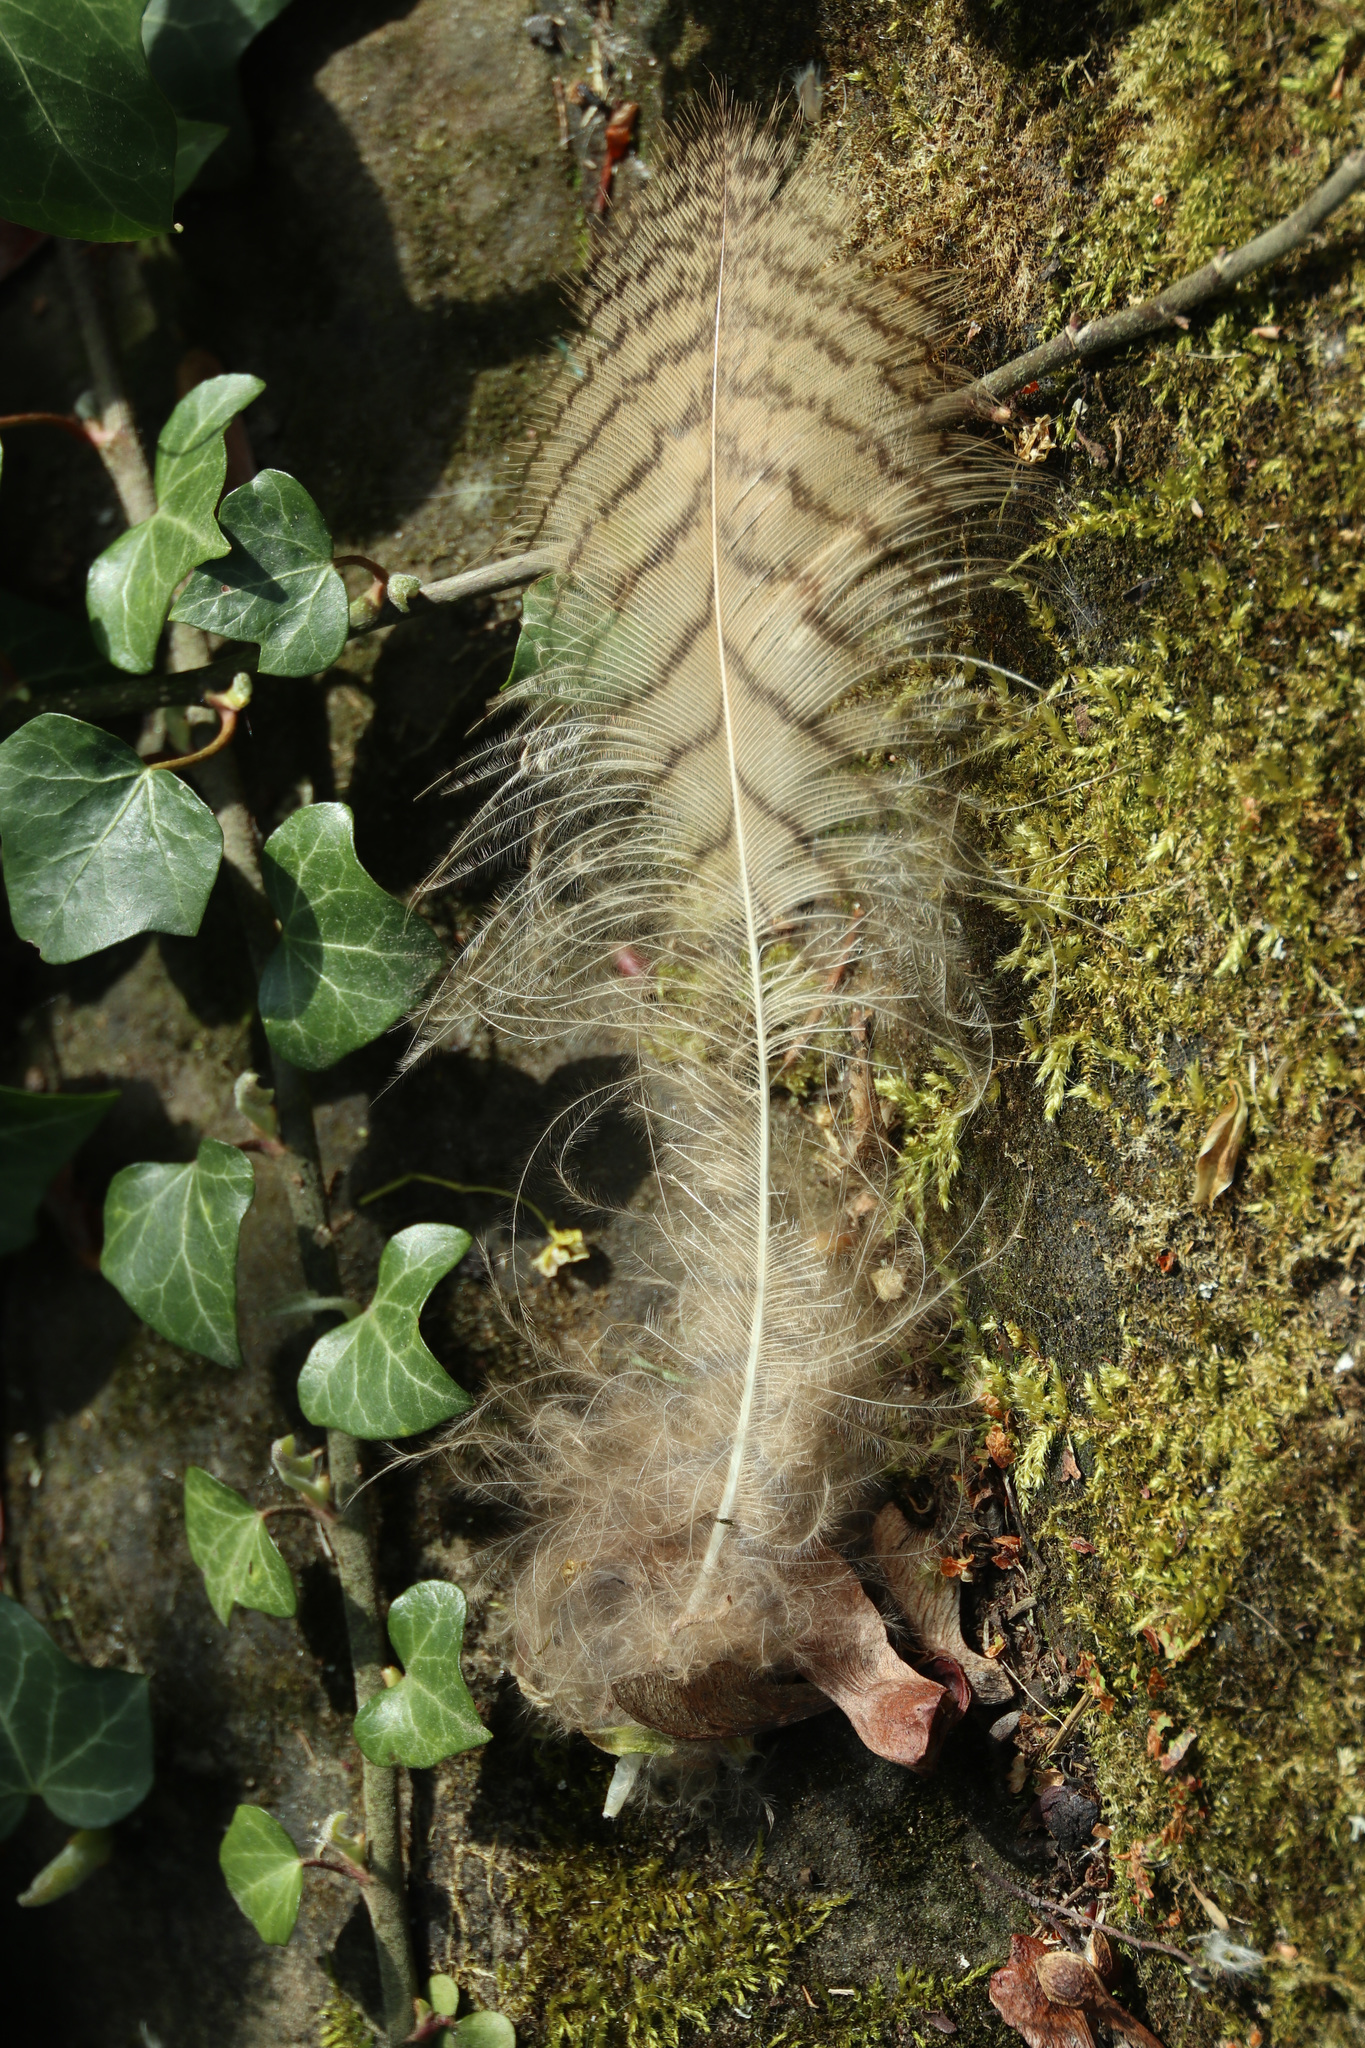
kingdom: Animalia
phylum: Chordata
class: Aves
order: Strigiformes
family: Strigidae
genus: Bubo
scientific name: Bubo bubo
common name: Eurasian eagle-owl
